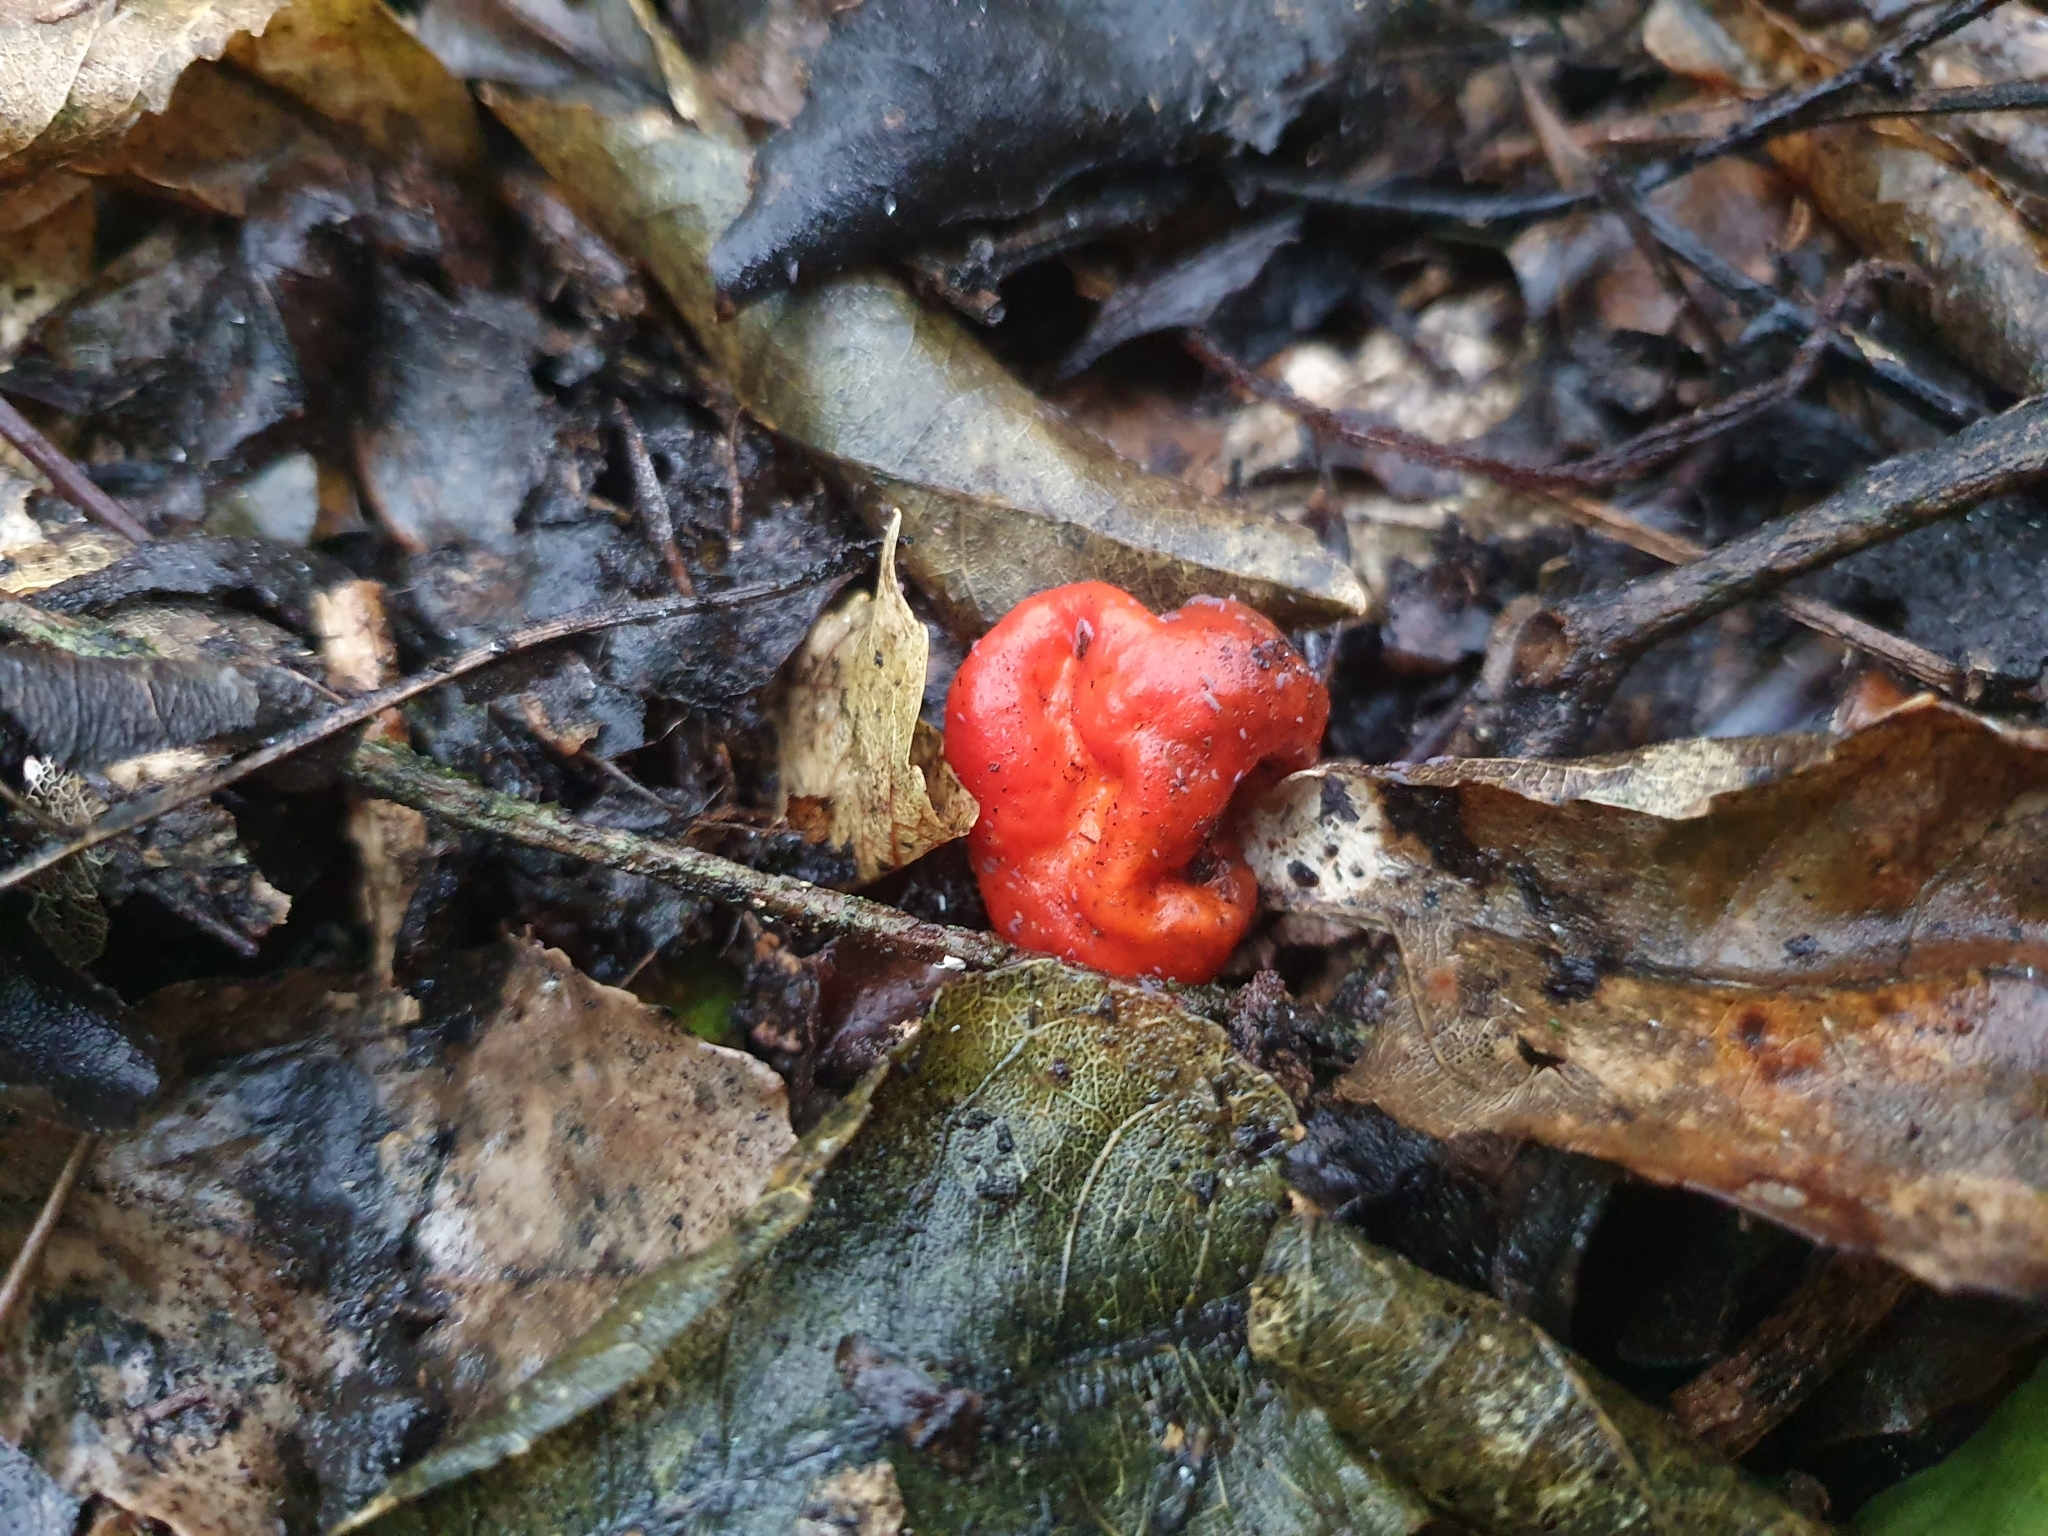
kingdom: Fungi
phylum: Basidiomycota
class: Agaricomycetes
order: Agaricales
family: Strophariaceae
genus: Leratiomyces
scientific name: Leratiomyces erythrocephalus
